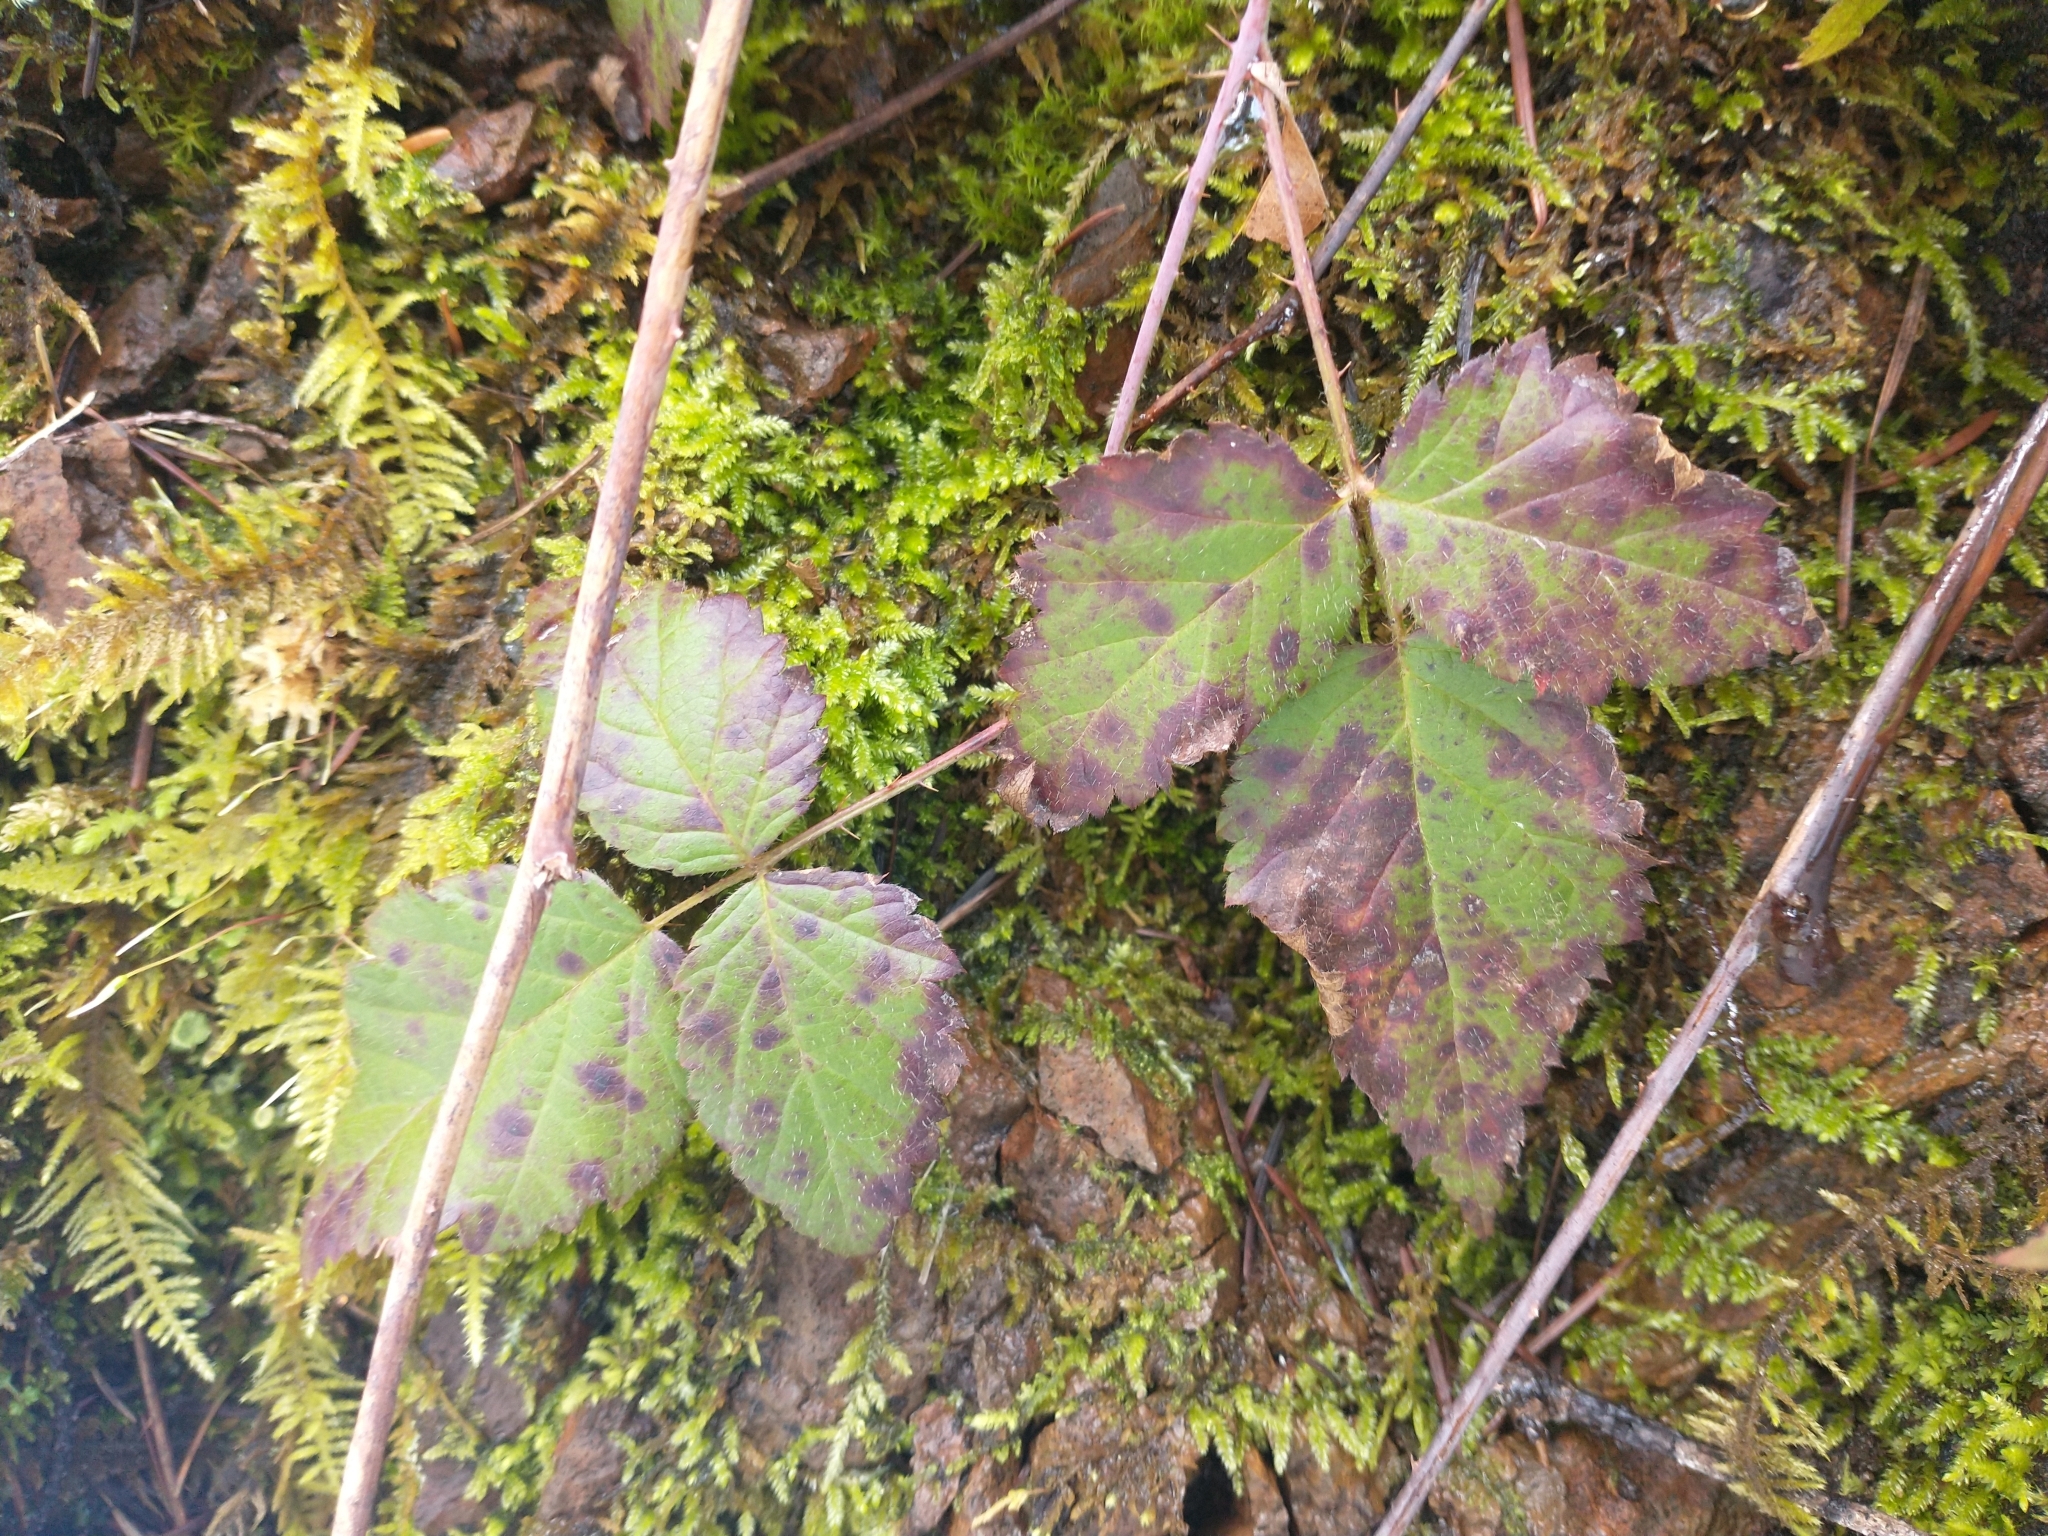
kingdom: Plantae
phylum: Tracheophyta
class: Magnoliopsida
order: Rosales
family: Rosaceae
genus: Rubus
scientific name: Rubus ursinus
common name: Pacific blackberry
